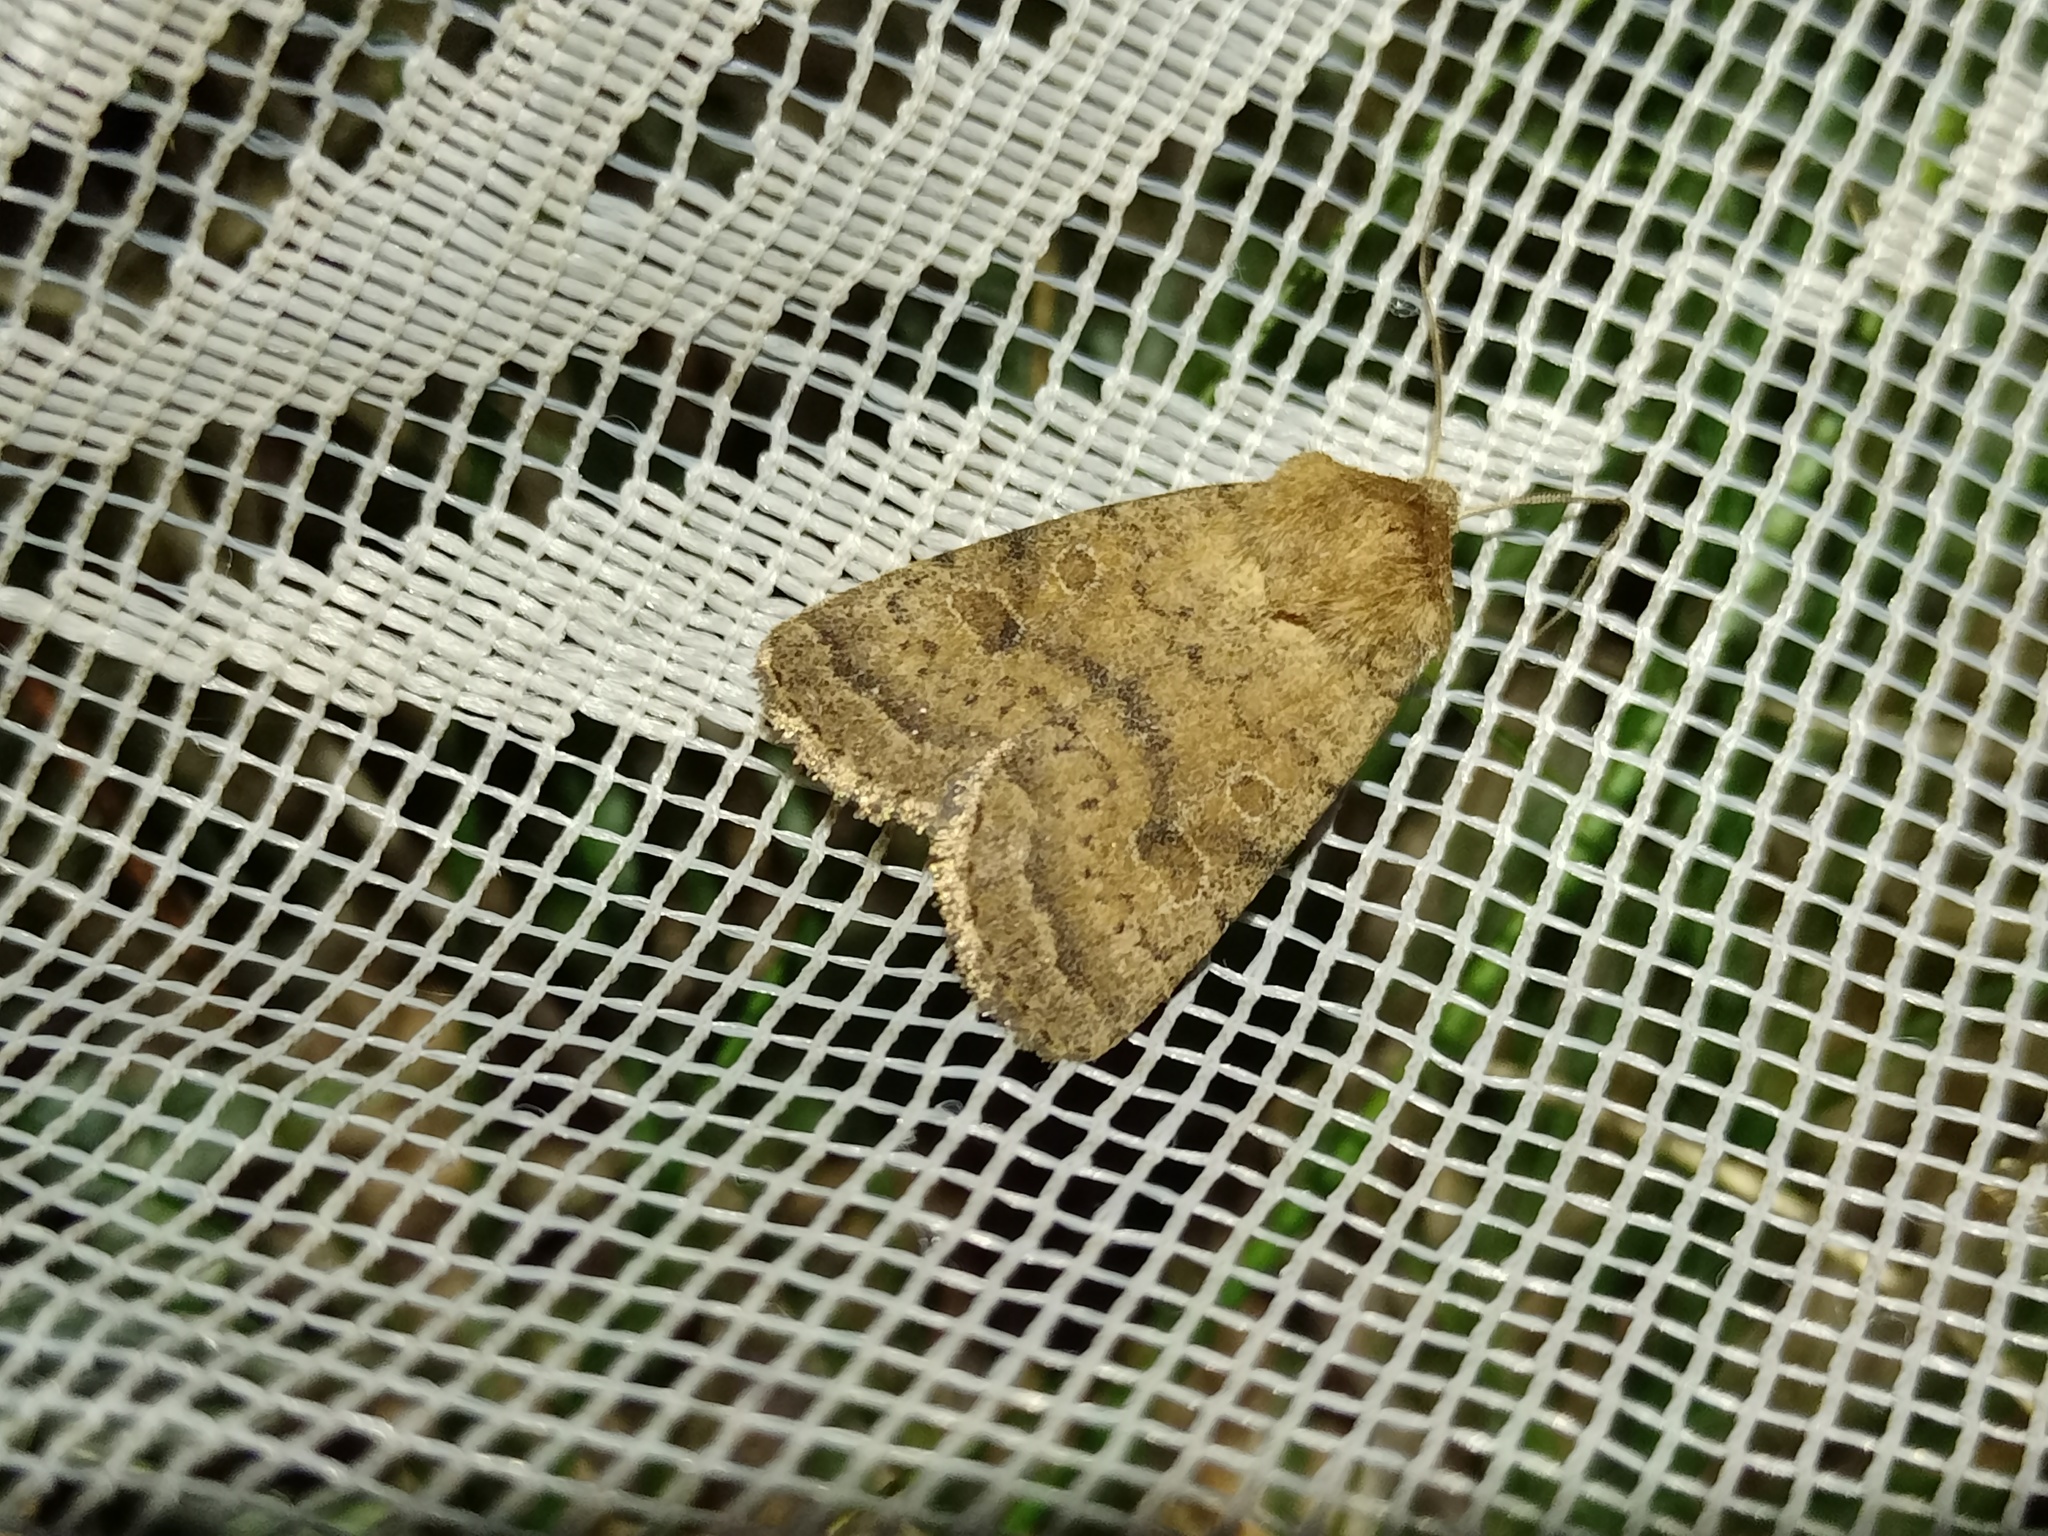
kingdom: Animalia
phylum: Arthropoda
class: Insecta
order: Lepidoptera
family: Noctuidae
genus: Hoplodrina
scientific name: Hoplodrina octogenaria
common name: Uncertain
